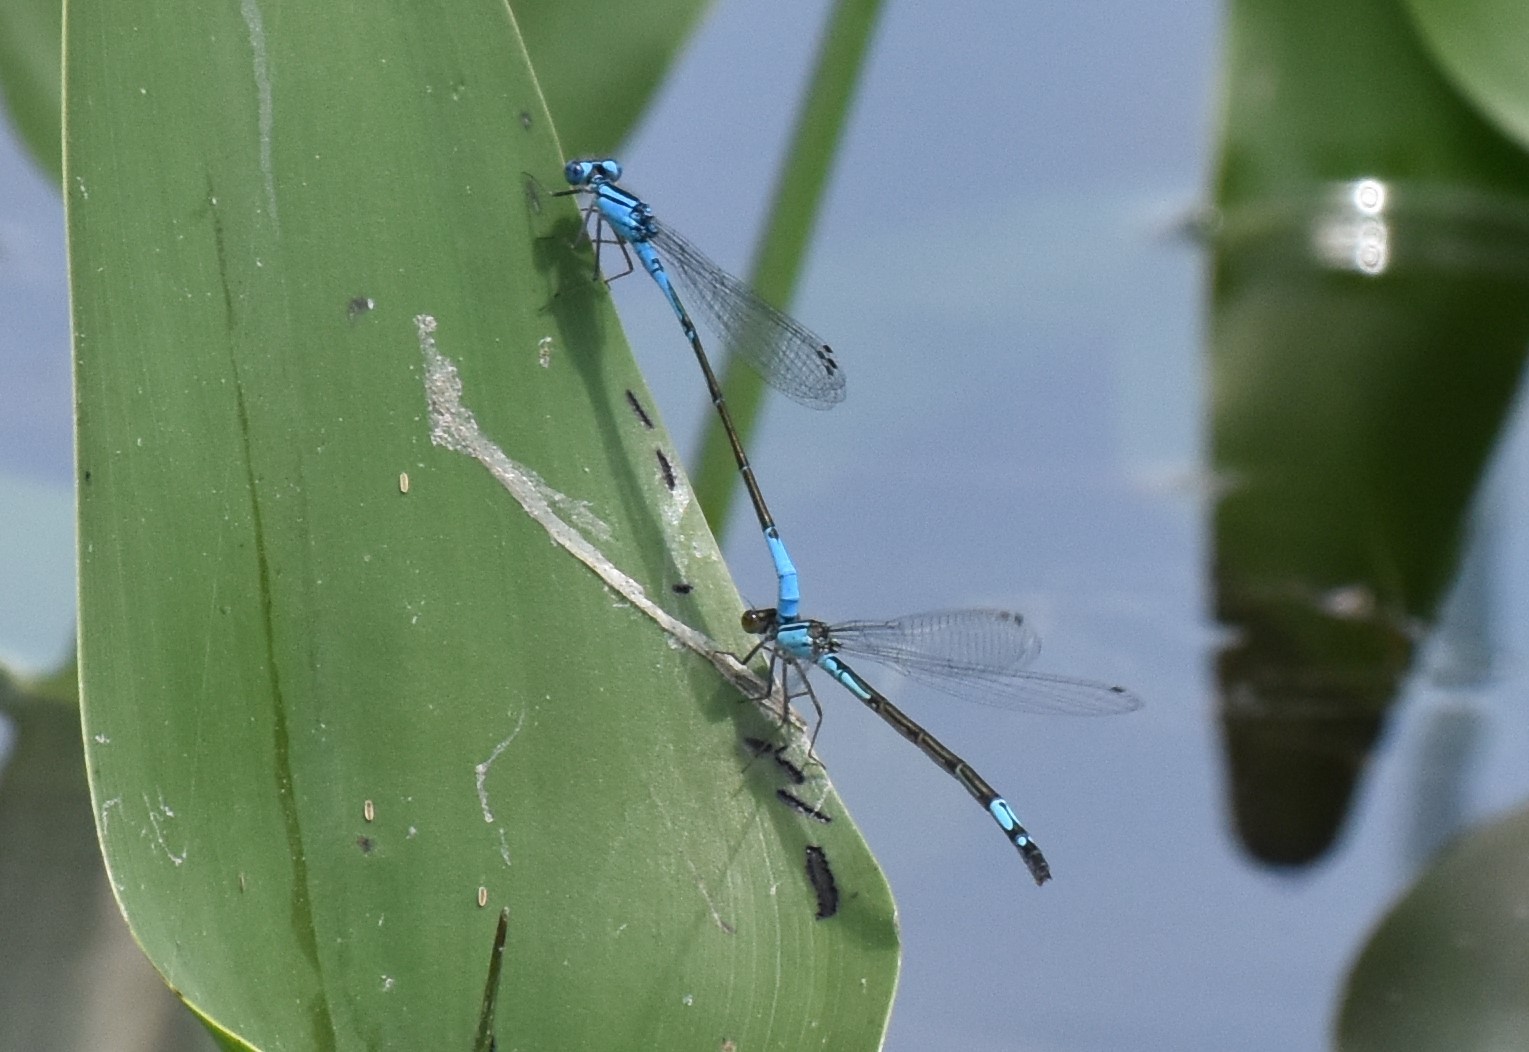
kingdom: Animalia
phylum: Arthropoda
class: Insecta
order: Odonata
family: Coenagrionidae
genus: Enallagma
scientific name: Enallagma aspersum
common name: Azure bluet
